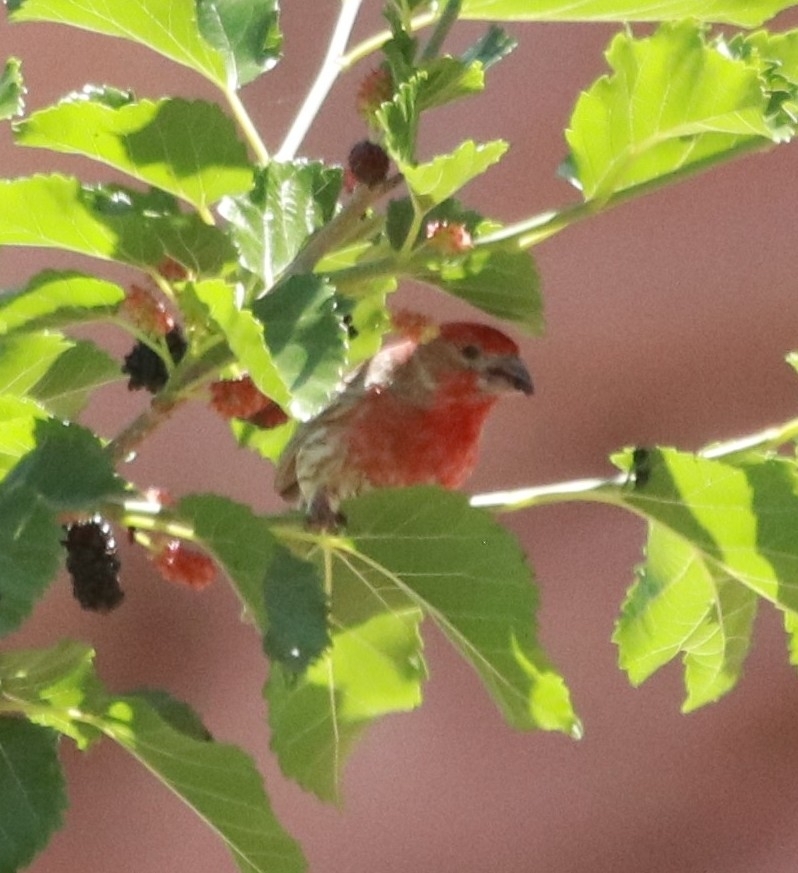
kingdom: Animalia
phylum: Chordata
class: Aves
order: Passeriformes
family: Fringillidae
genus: Haemorhous
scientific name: Haemorhous mexicanus
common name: House finch
